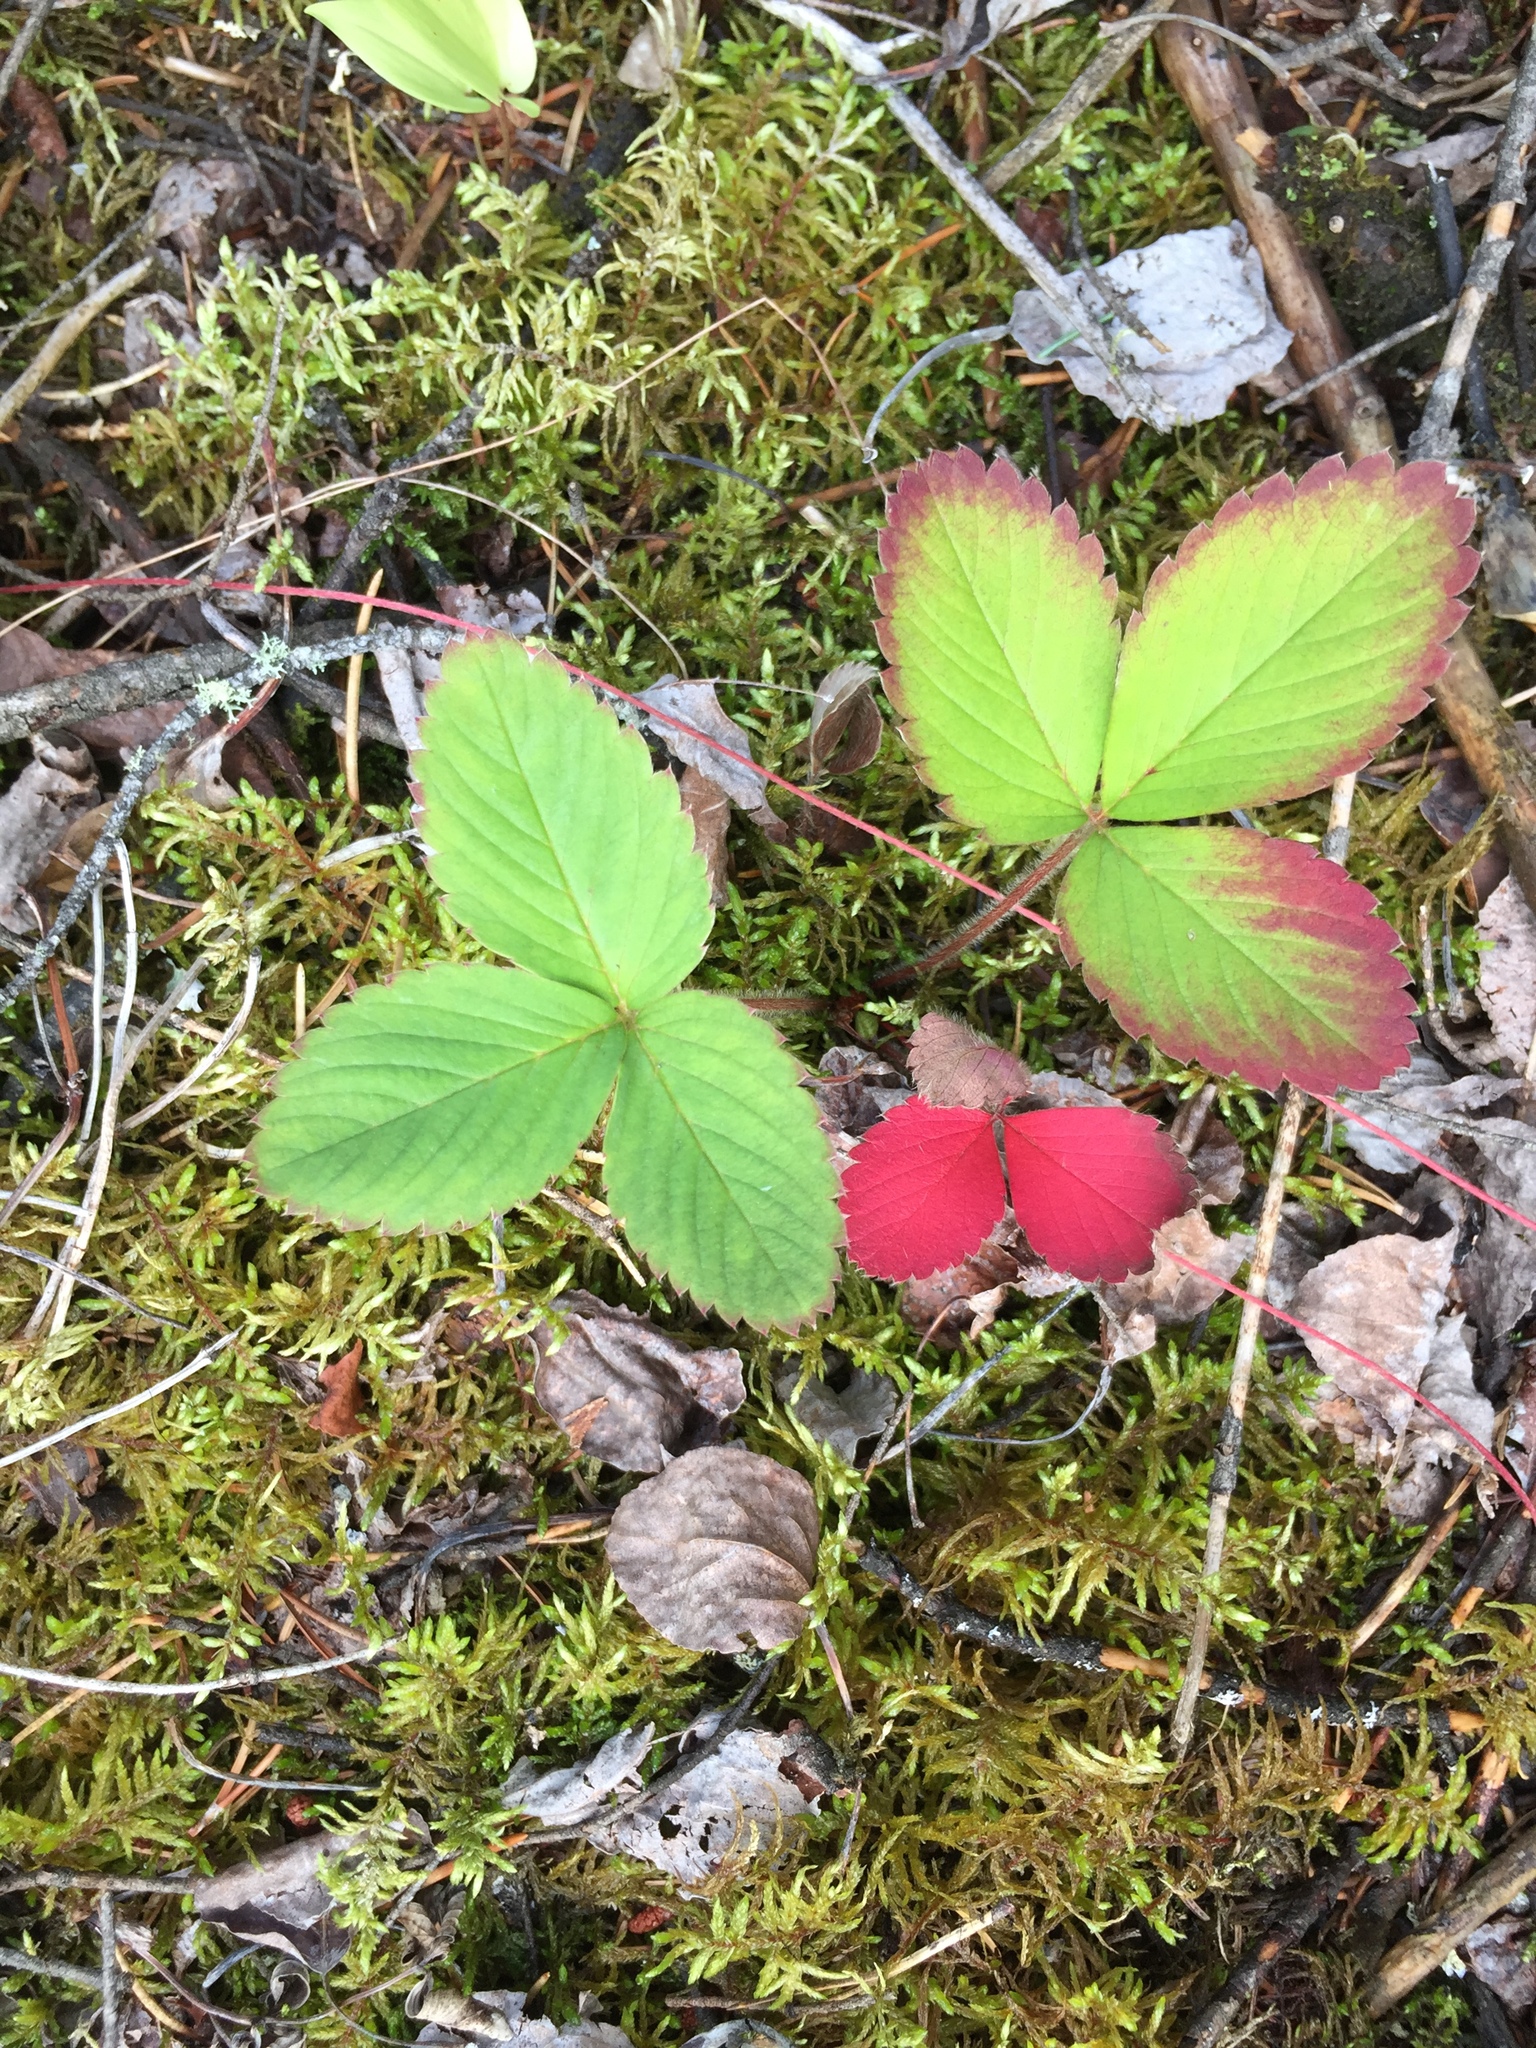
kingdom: Plantae
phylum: Tracheophyta
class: Magnoliopsida
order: Rosales
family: Rosaceae
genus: Fragaria
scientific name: Fragaria virginiana
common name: Thickleaved wild strawberry
